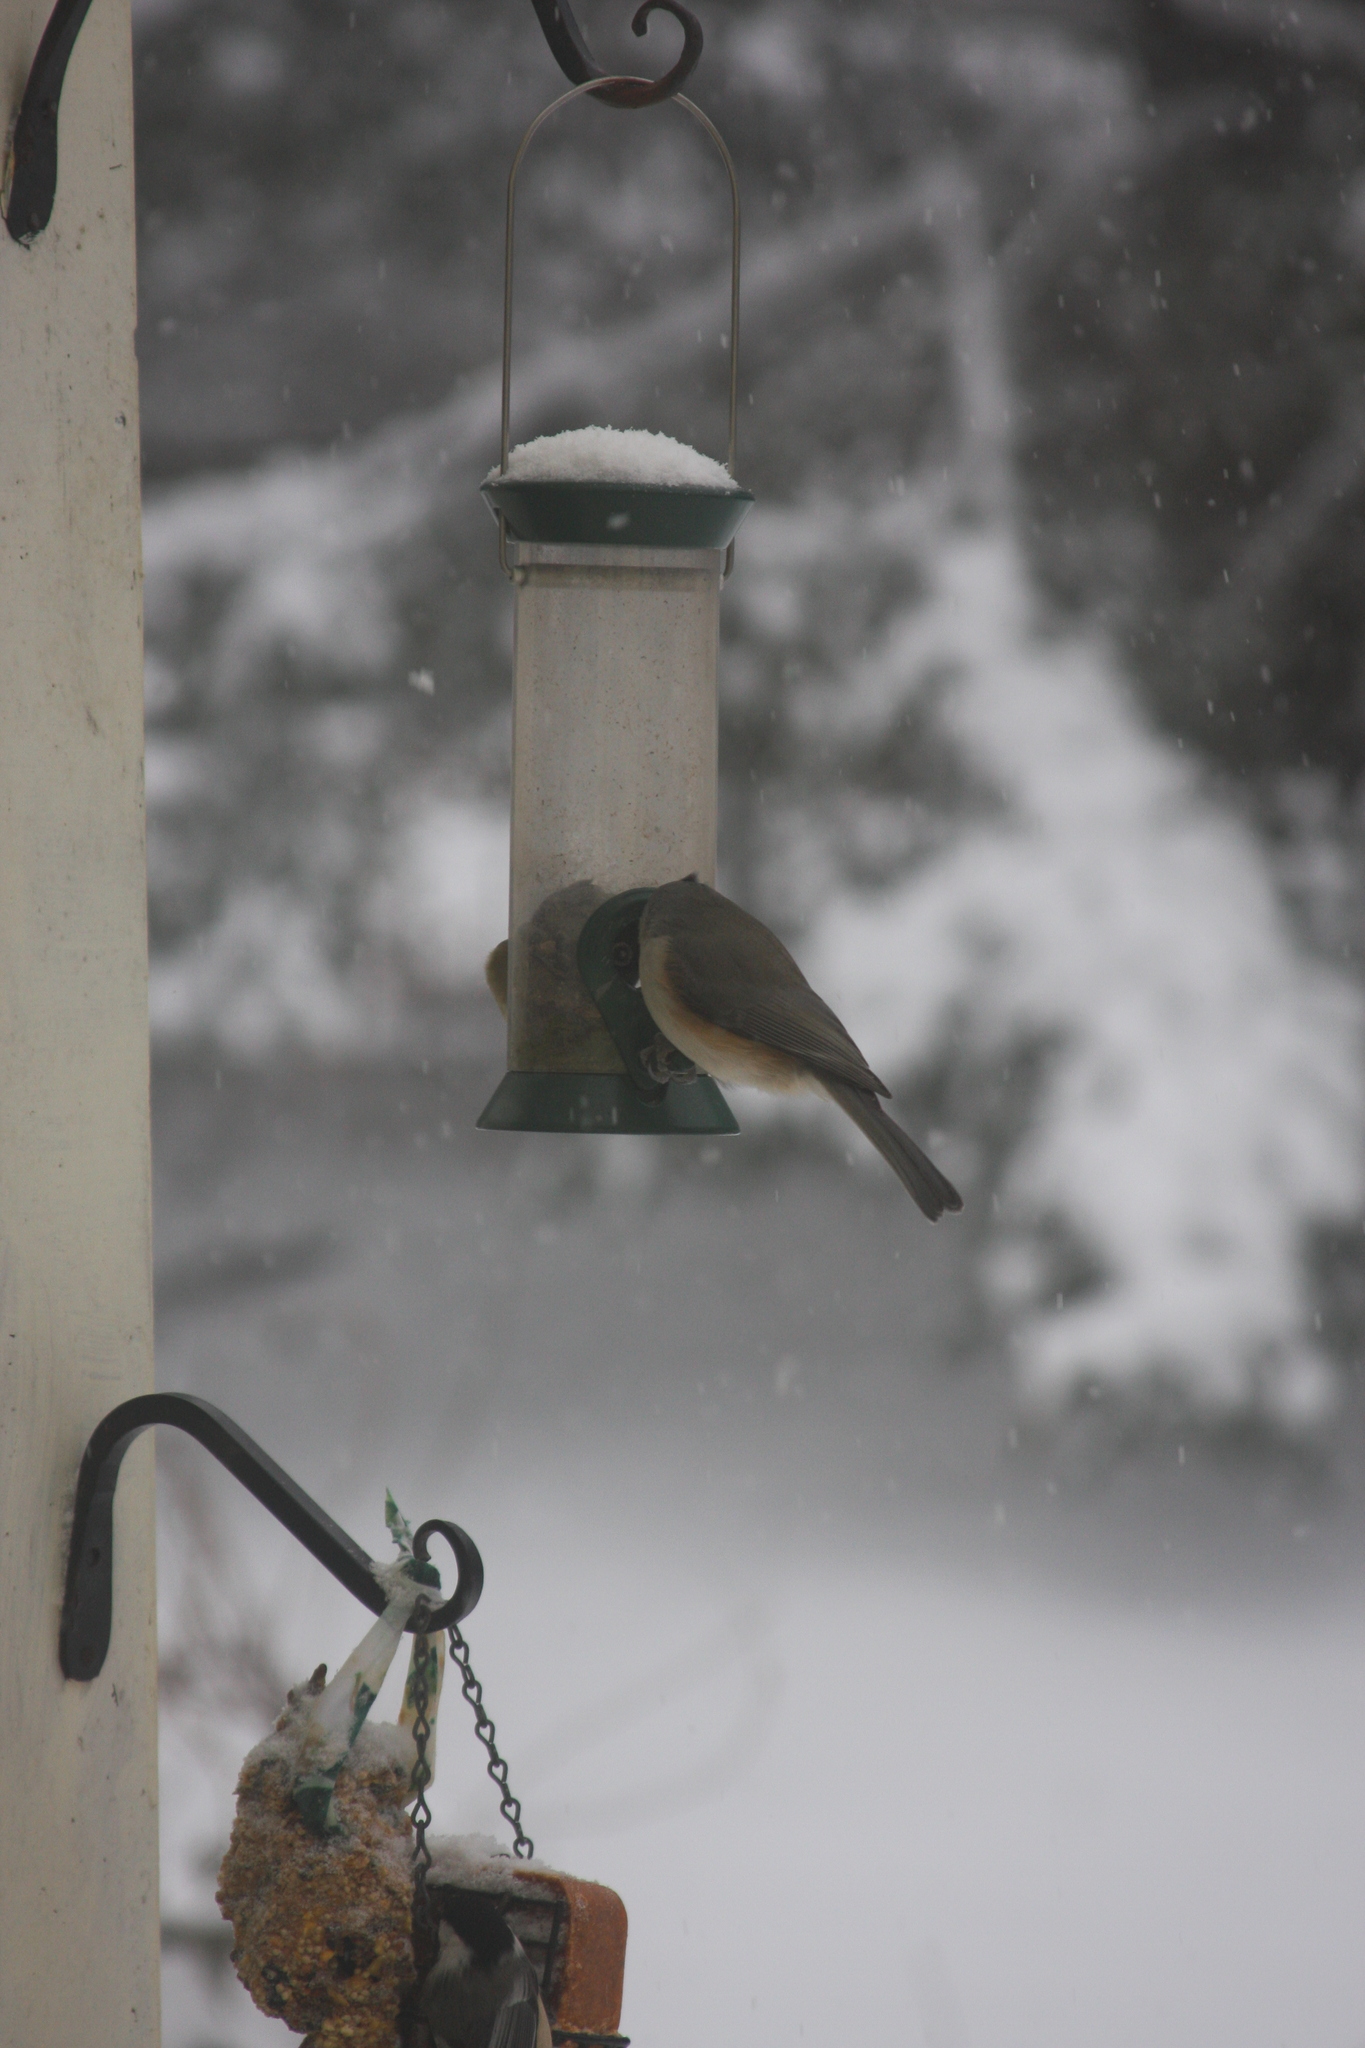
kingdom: Animalia
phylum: Chordata
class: Aves
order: Passeriformes
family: Paridae
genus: Baeolophus
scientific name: Baeolophus bicolor
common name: Tufted titmouse
